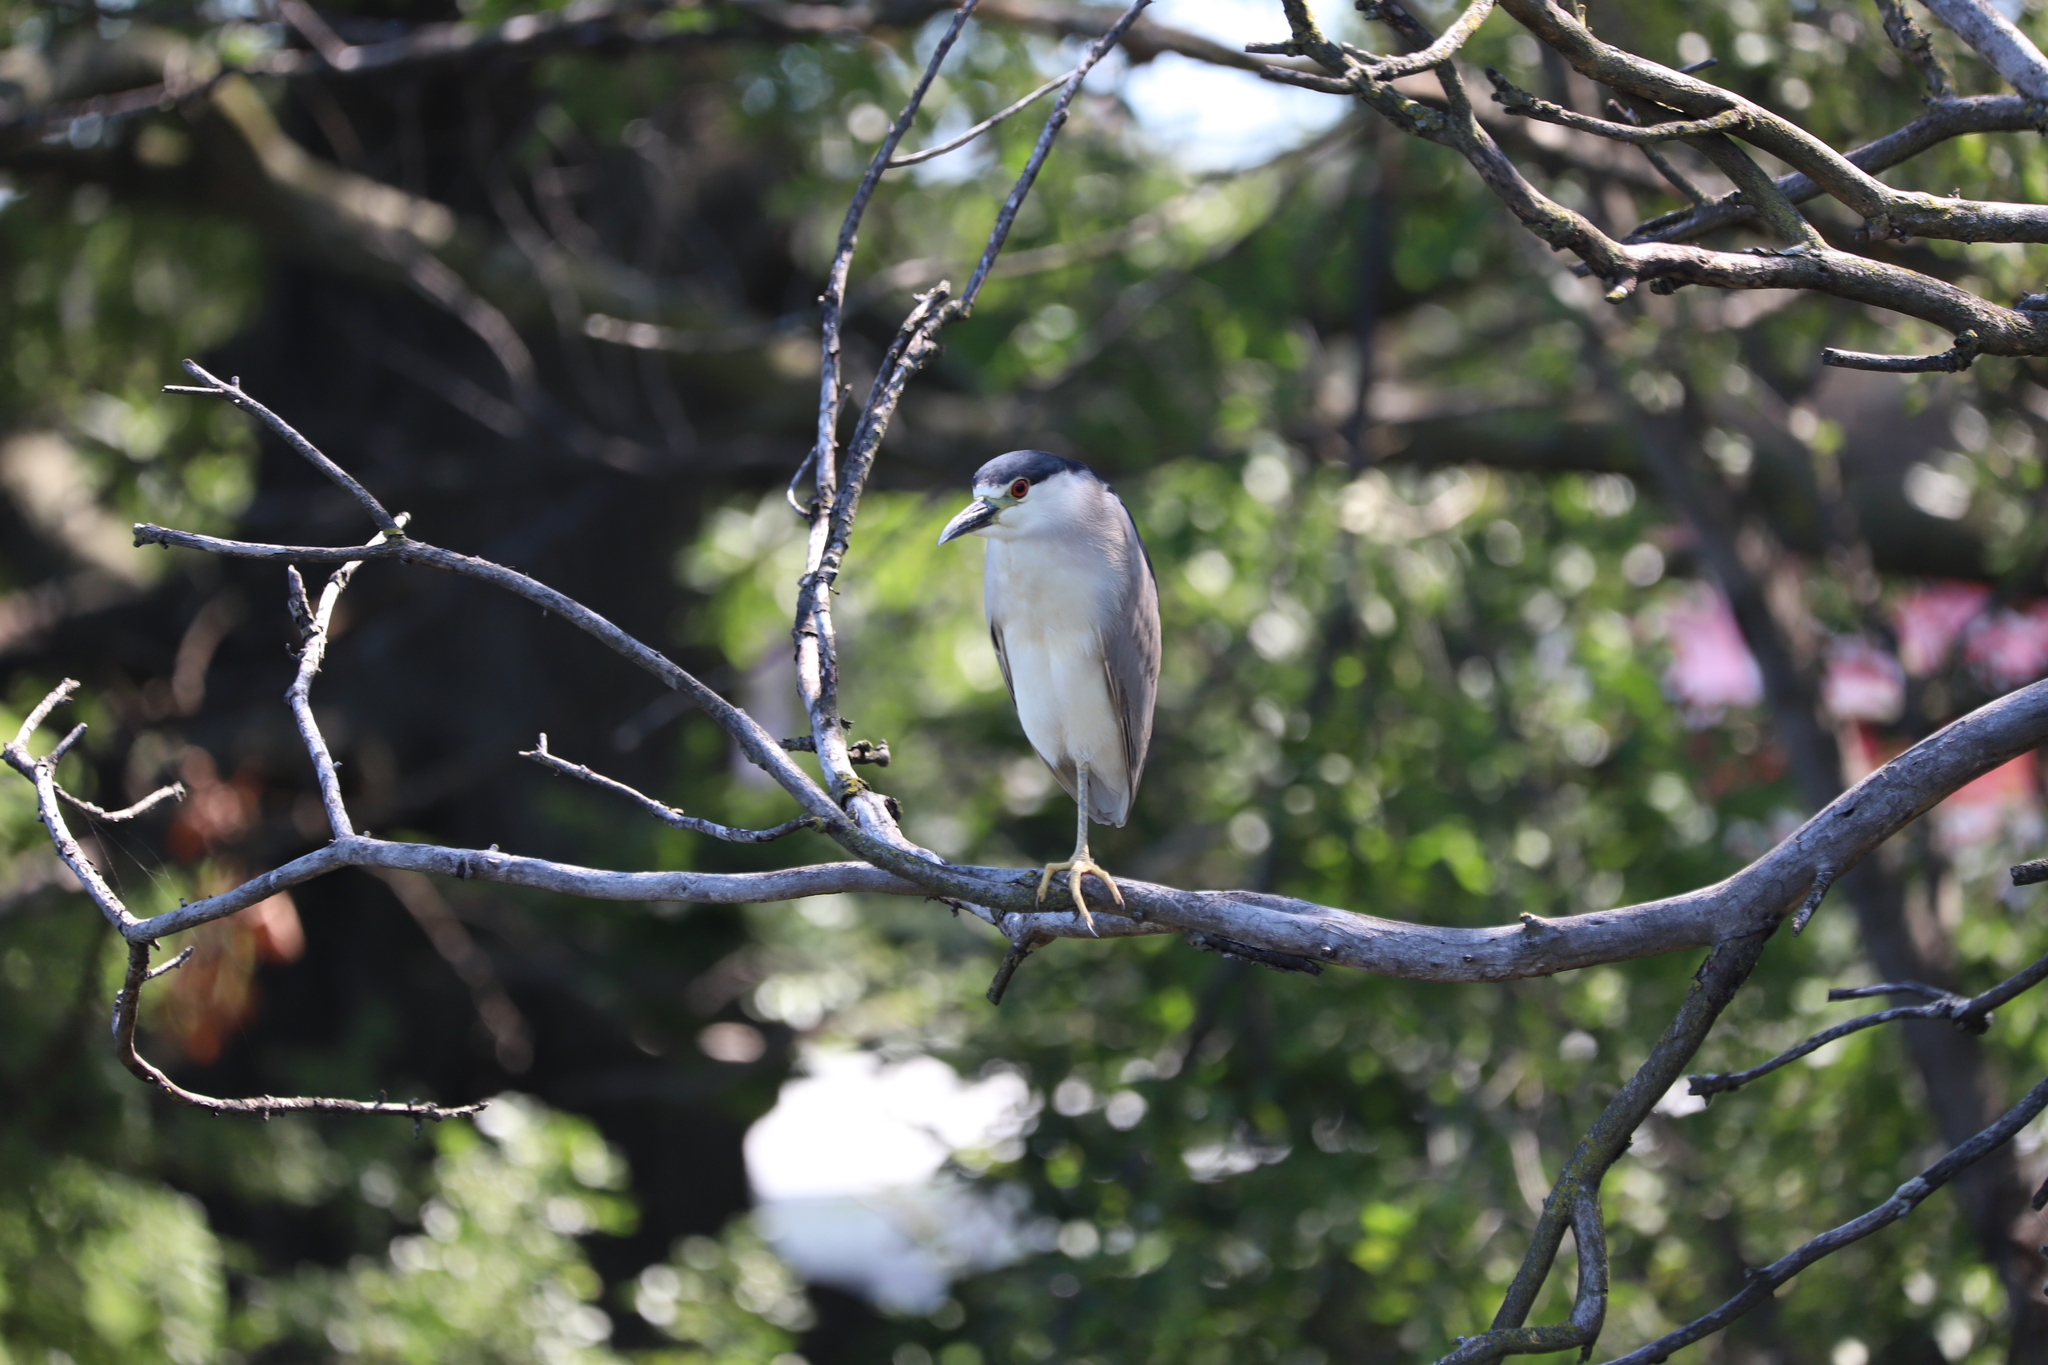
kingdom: Animalia
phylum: Chordata
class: Aves
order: Pelecaniformes
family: Ardeidae
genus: Nycticorax
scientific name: Nycticorax nycticorax
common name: Black-crowned night heron
